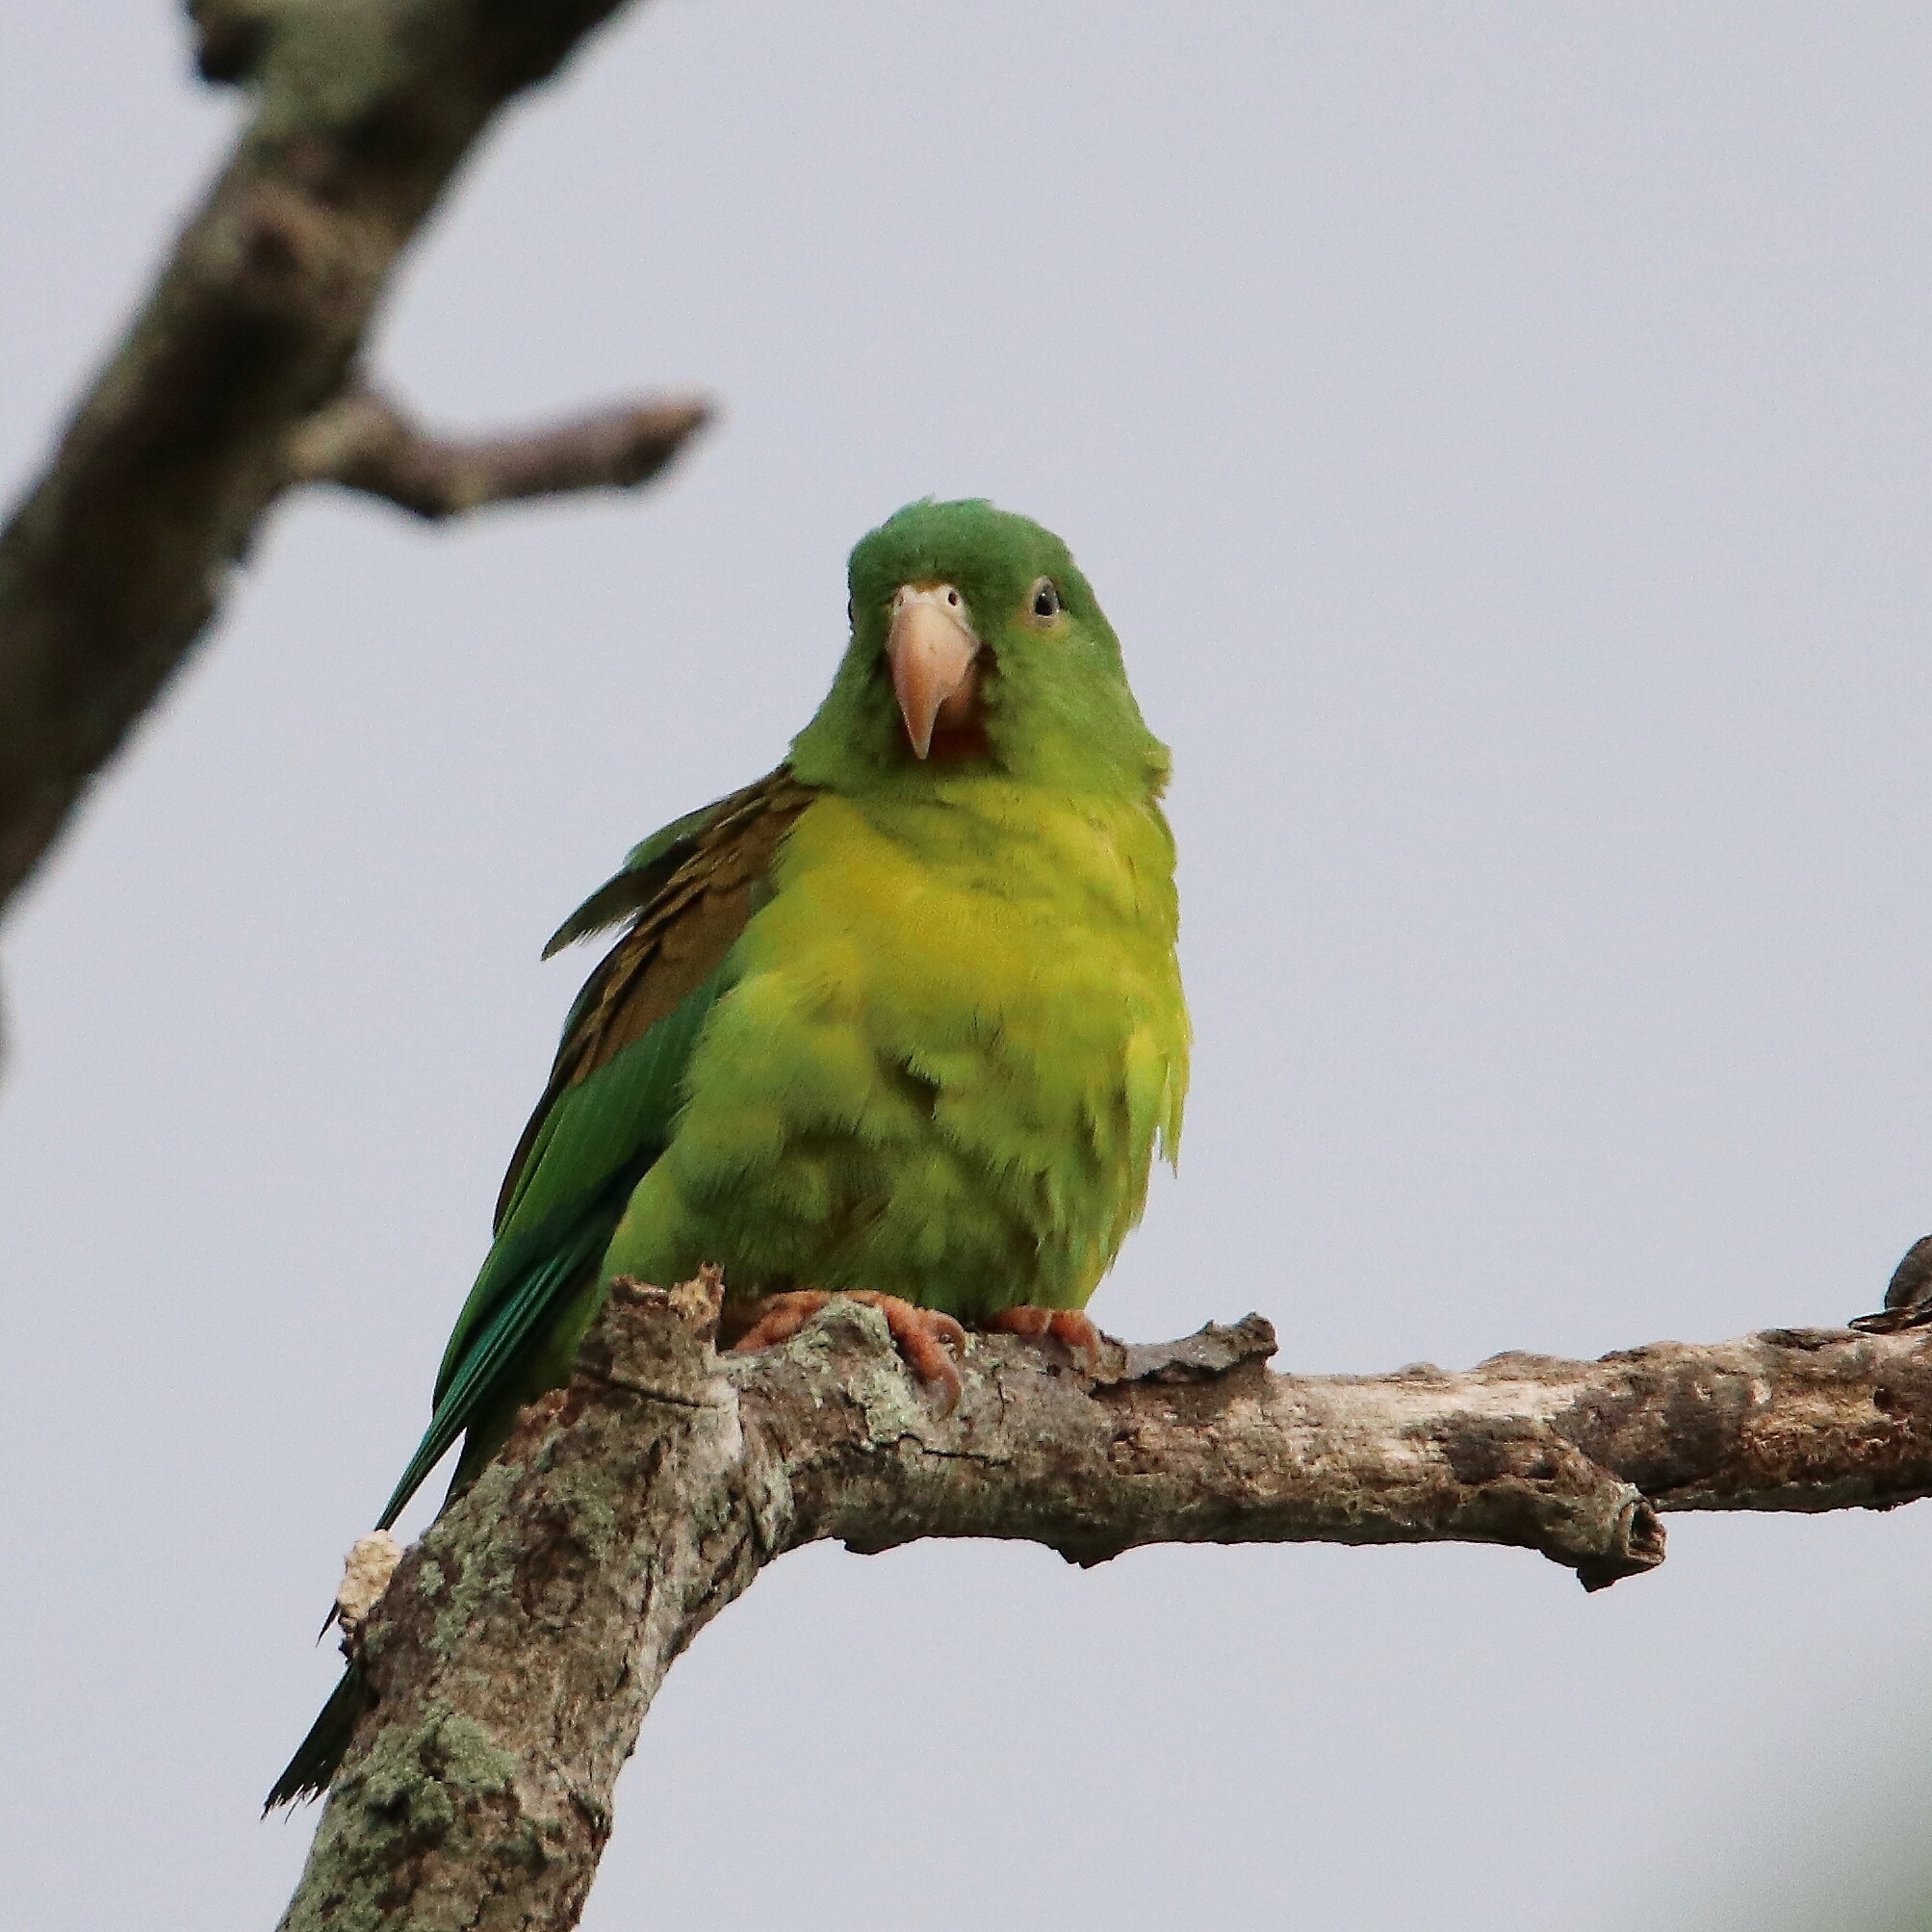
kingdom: Animalia
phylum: Chordata
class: Aves
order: Psittaciformes
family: Psittacidae
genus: Brotogeris
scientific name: Brotogeris jugularis
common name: Orange-chinned parakeet
